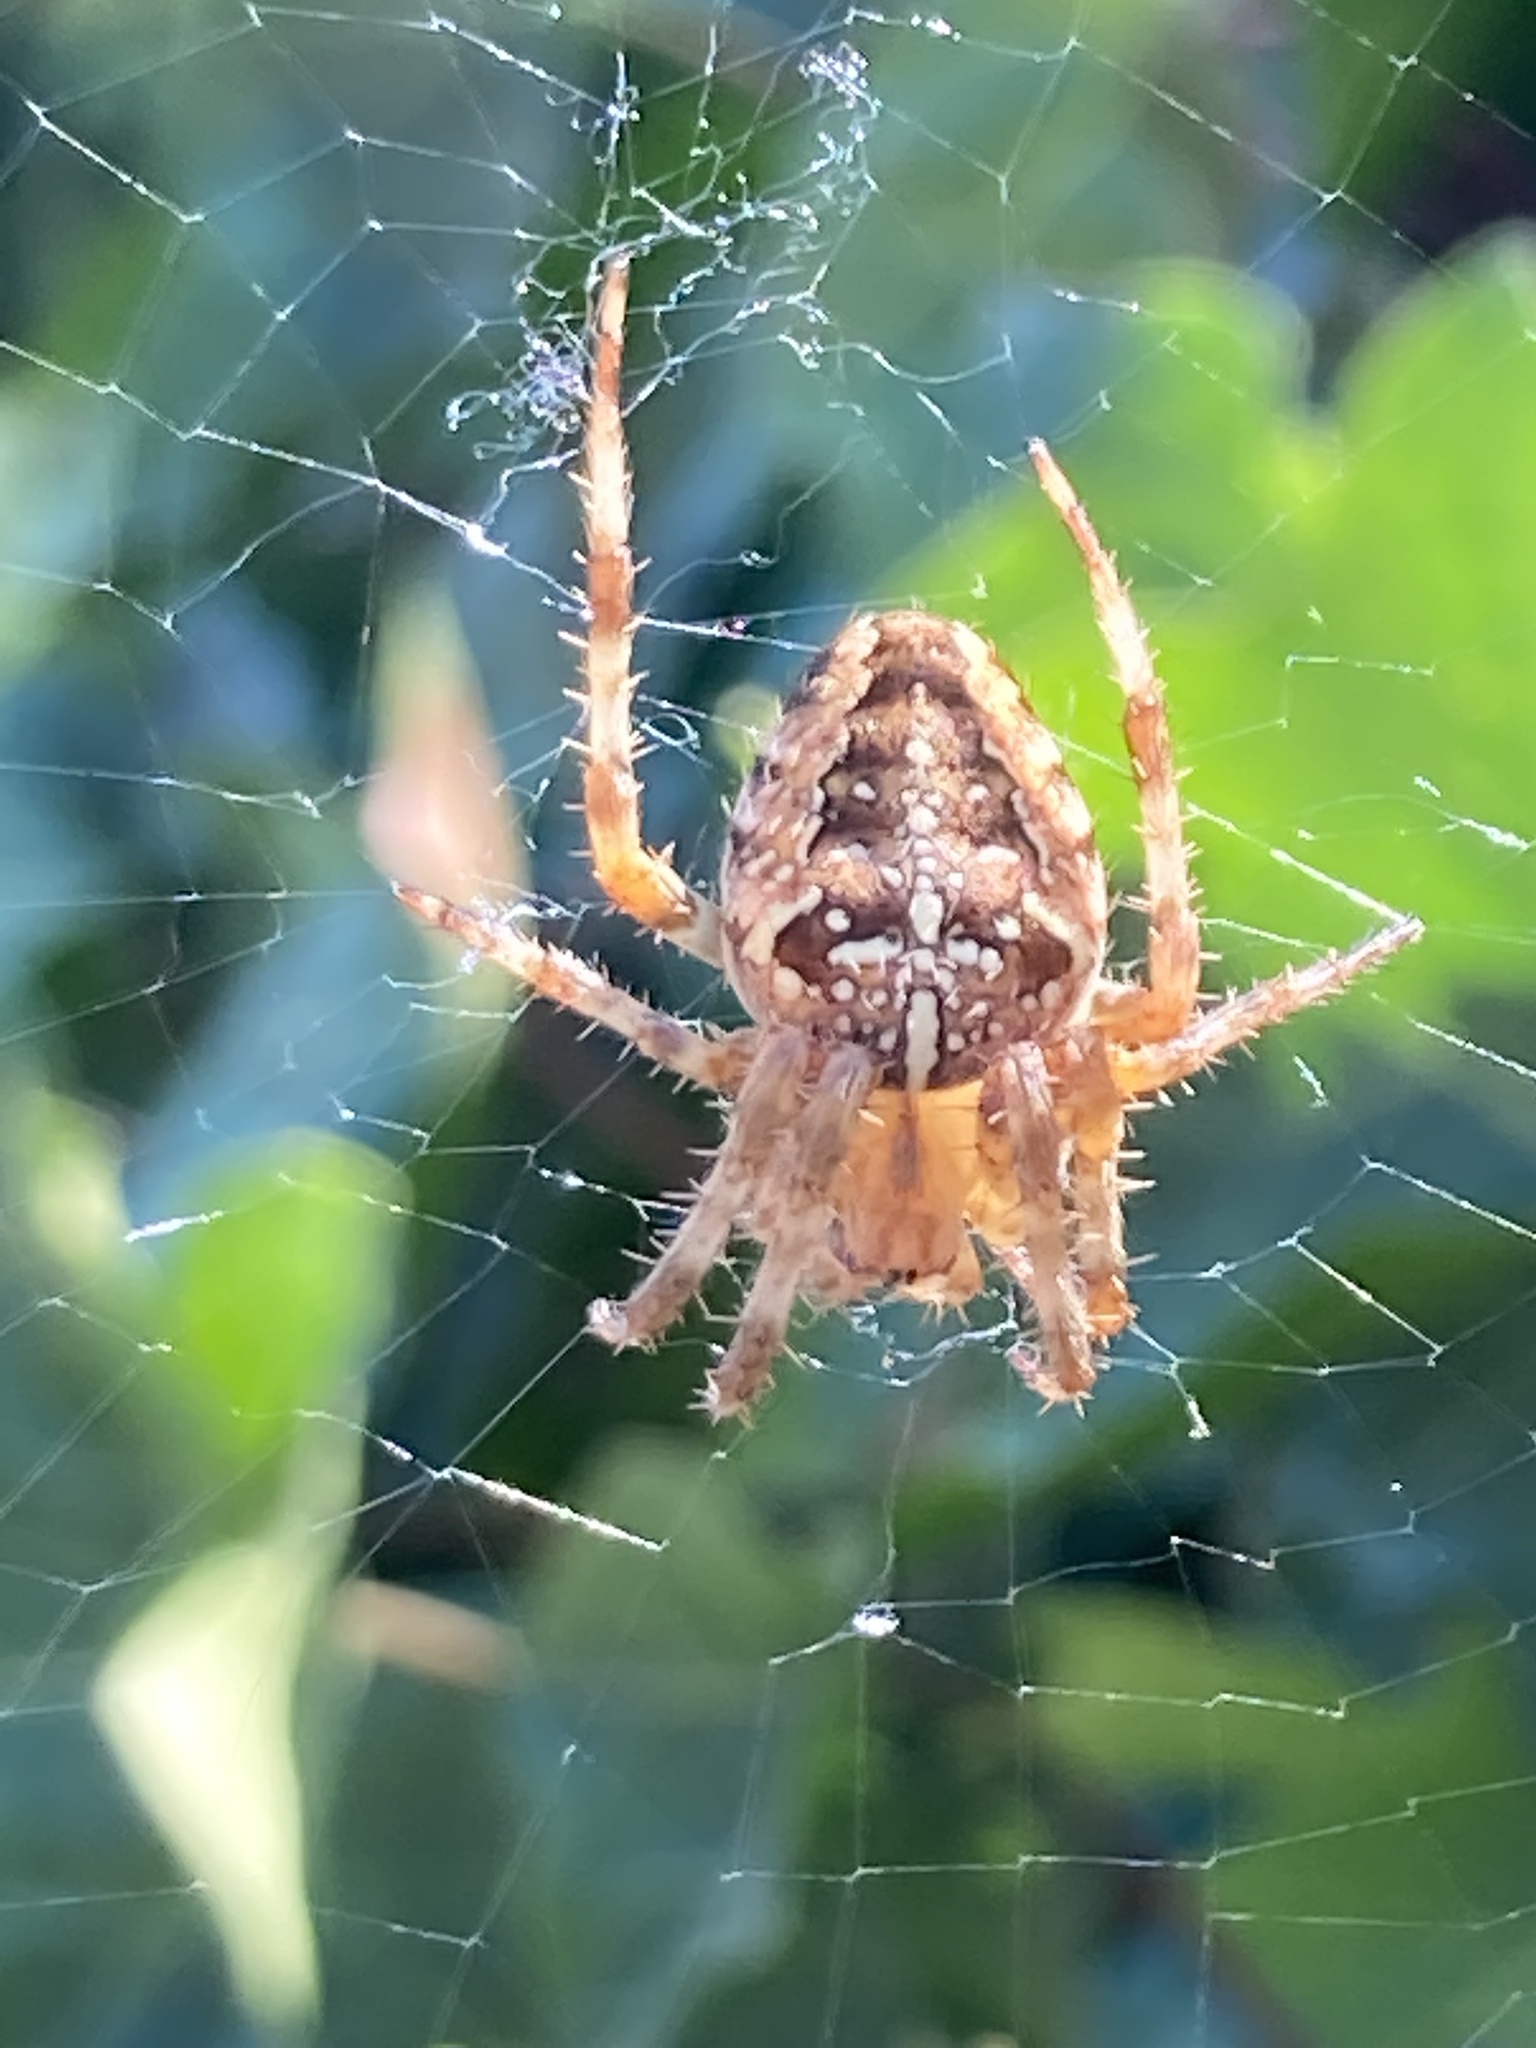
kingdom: Animalia
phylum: Arthropoda
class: Arachnida
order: Araneae
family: Araneidae
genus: Araneus
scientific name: Araneus diadematus
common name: Cross orbweaver
